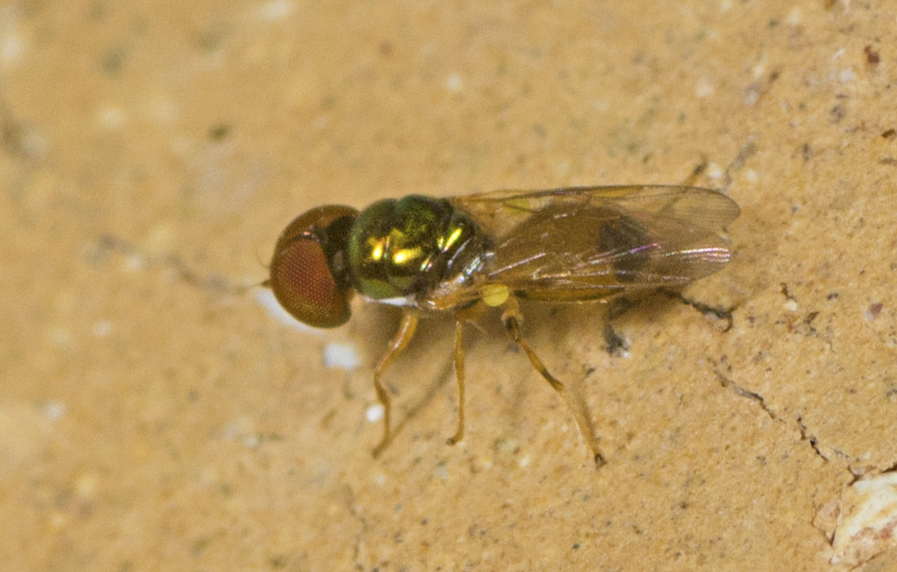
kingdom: Animalia
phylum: Arthropoda
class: Insecta
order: Diptera
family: Stratiomyidae
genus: Microchrysa
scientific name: Microchrysa flaviventris
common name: Soldier fly
